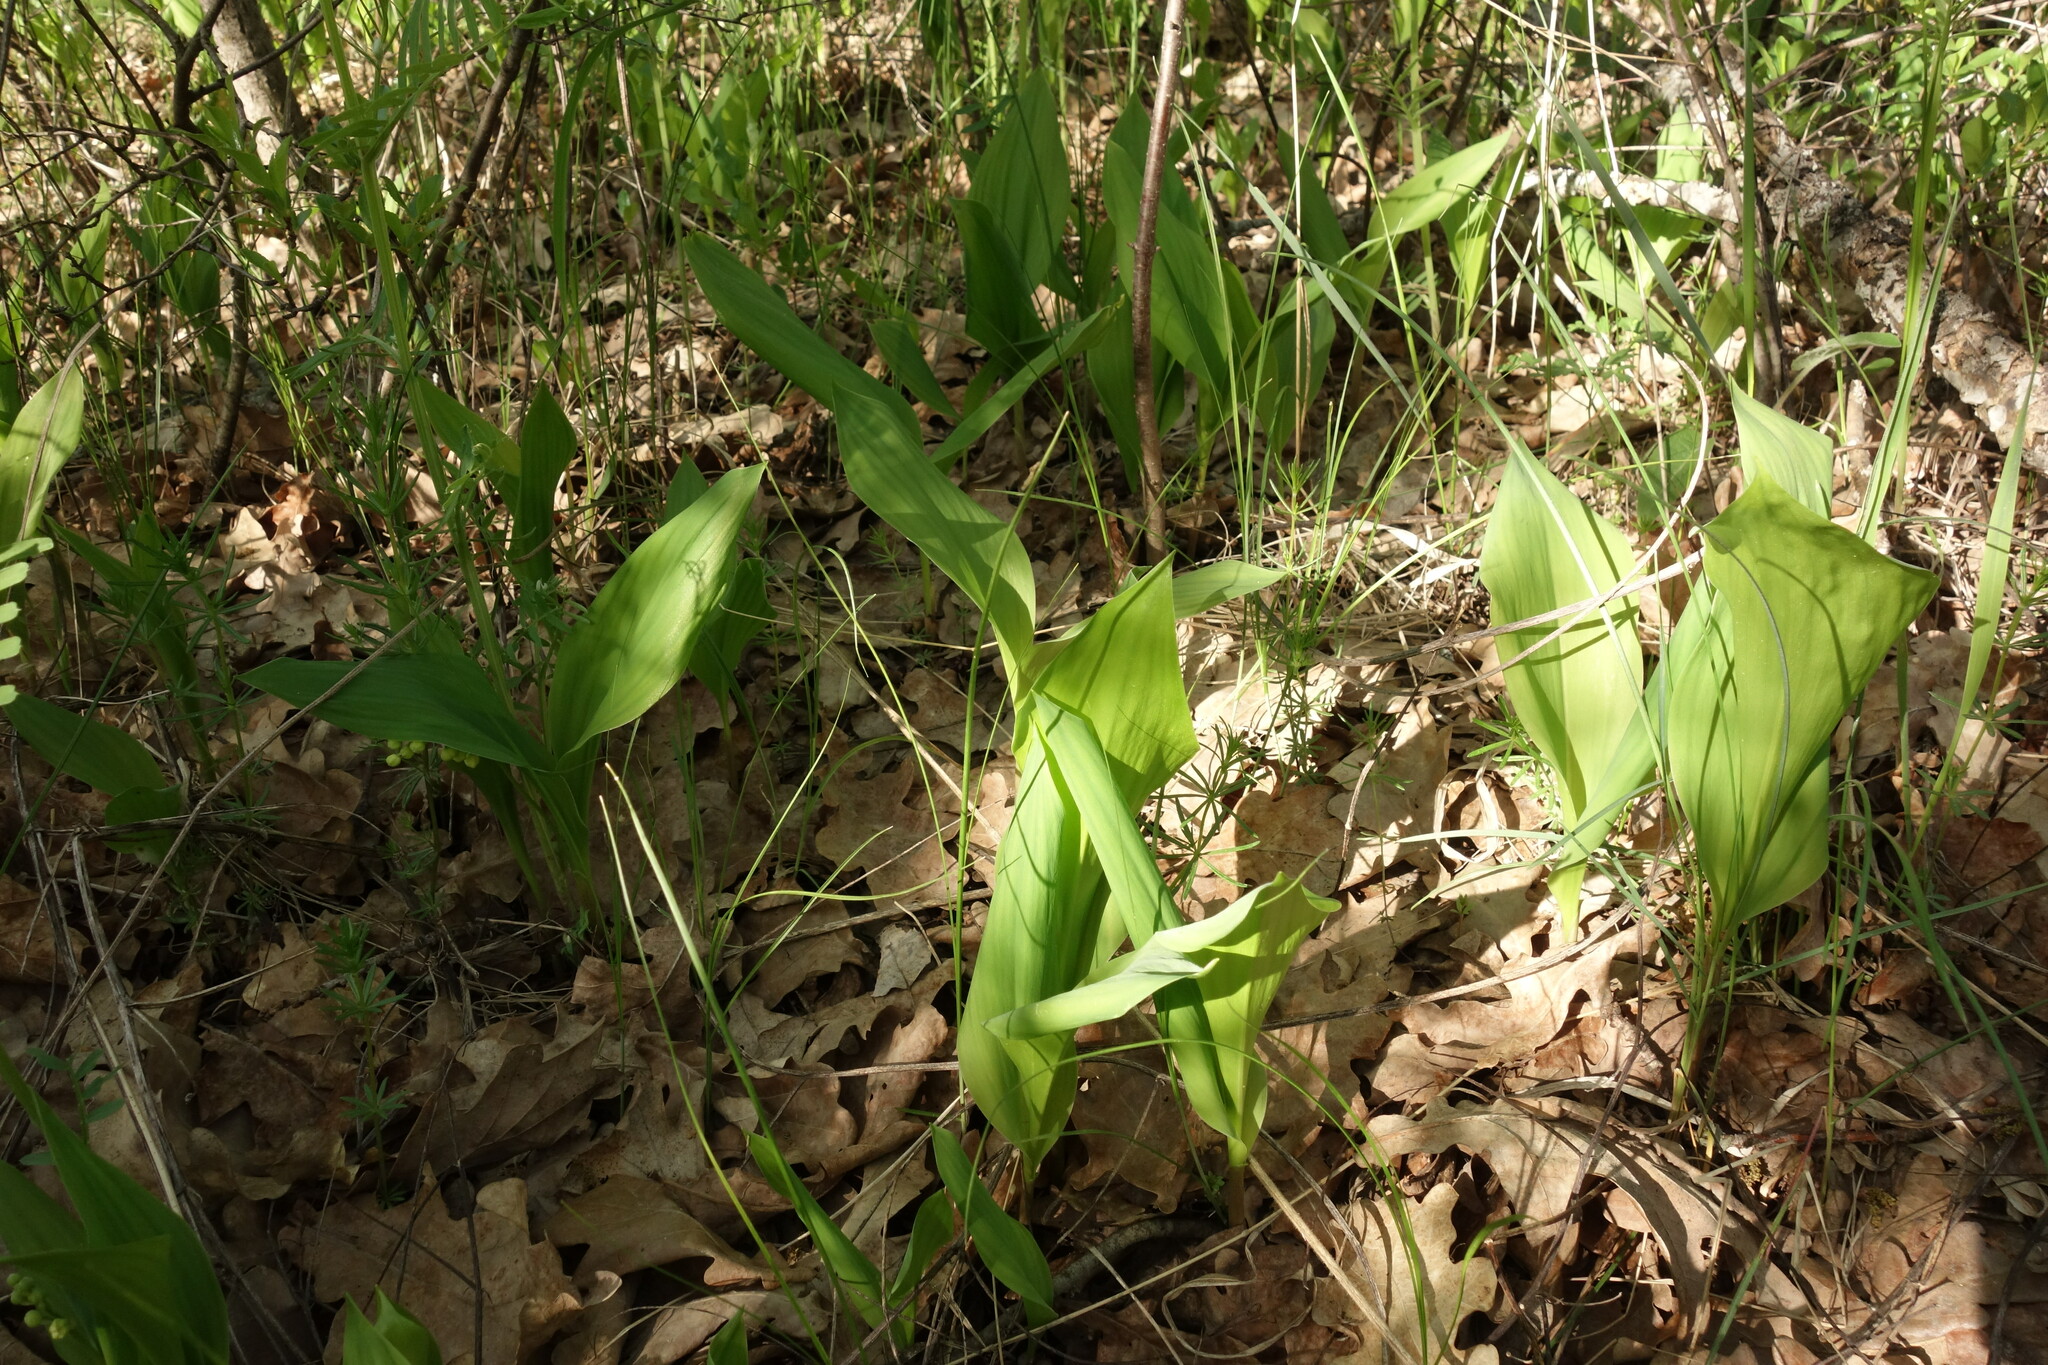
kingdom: Plantae
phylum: Tracheophyta
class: Liliopsida
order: Asparagales
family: Asparagaceae
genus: Convallaria
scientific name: Convallaria majalis
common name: Lily-of-the-valley
